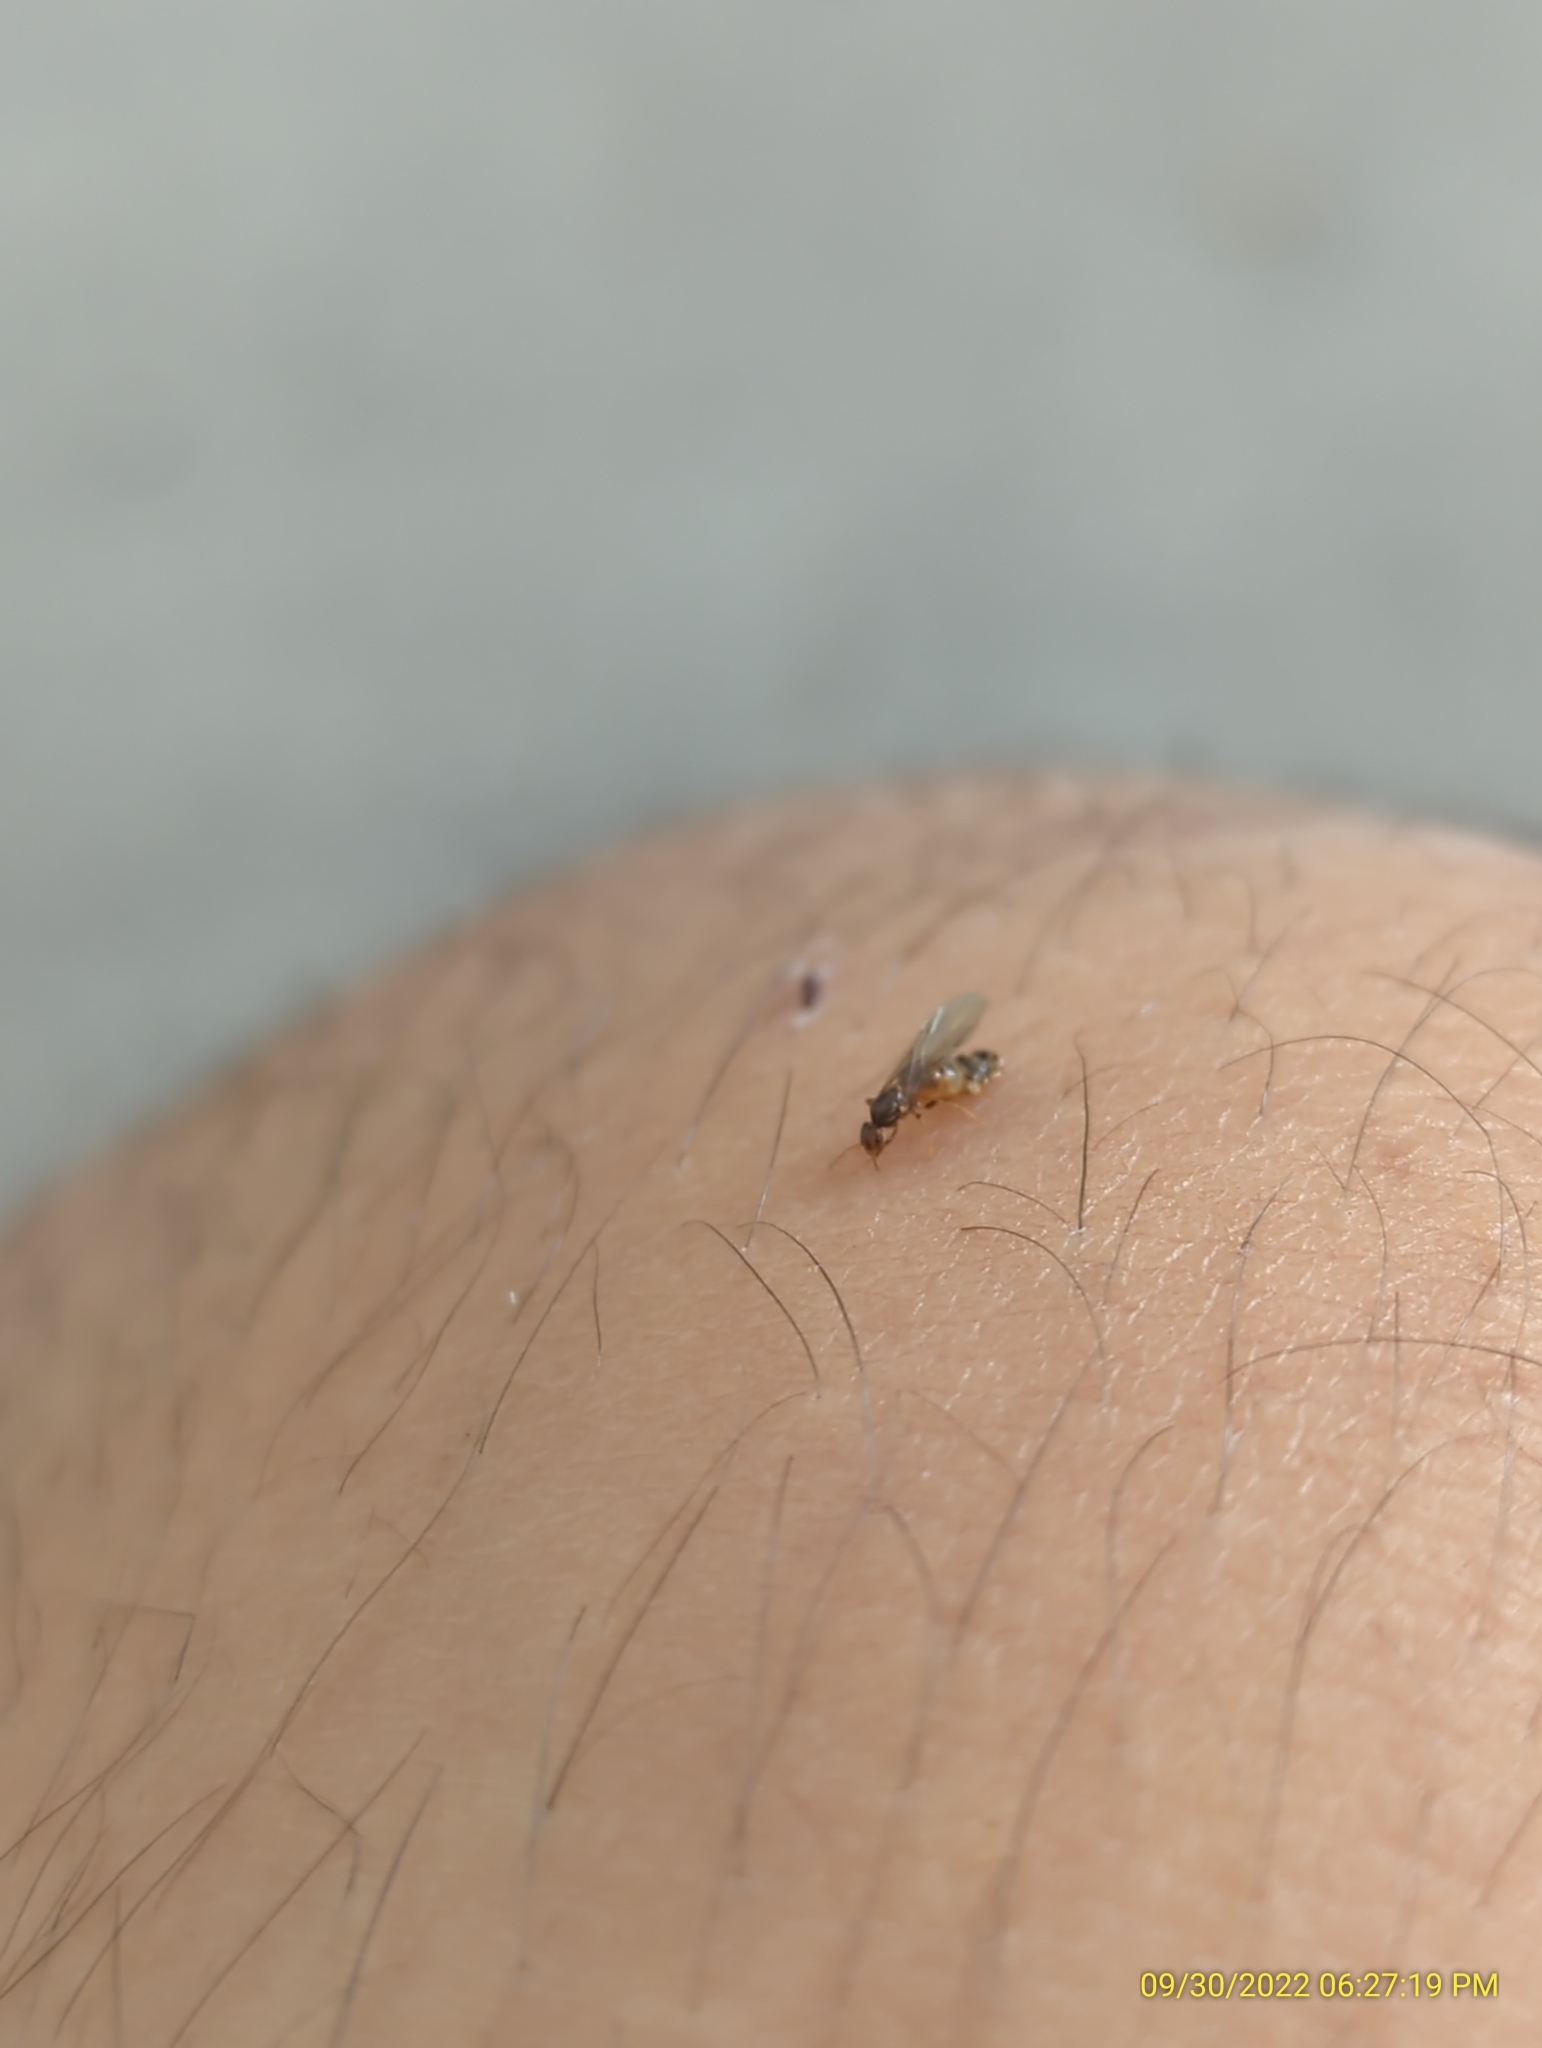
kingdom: Animalia
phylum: Arthropoda
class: Insecta
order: Hymenoptera
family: Formicidae
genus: Brachymyrmex
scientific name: Brachymyrmex obscurior
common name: Obscure rover ant
